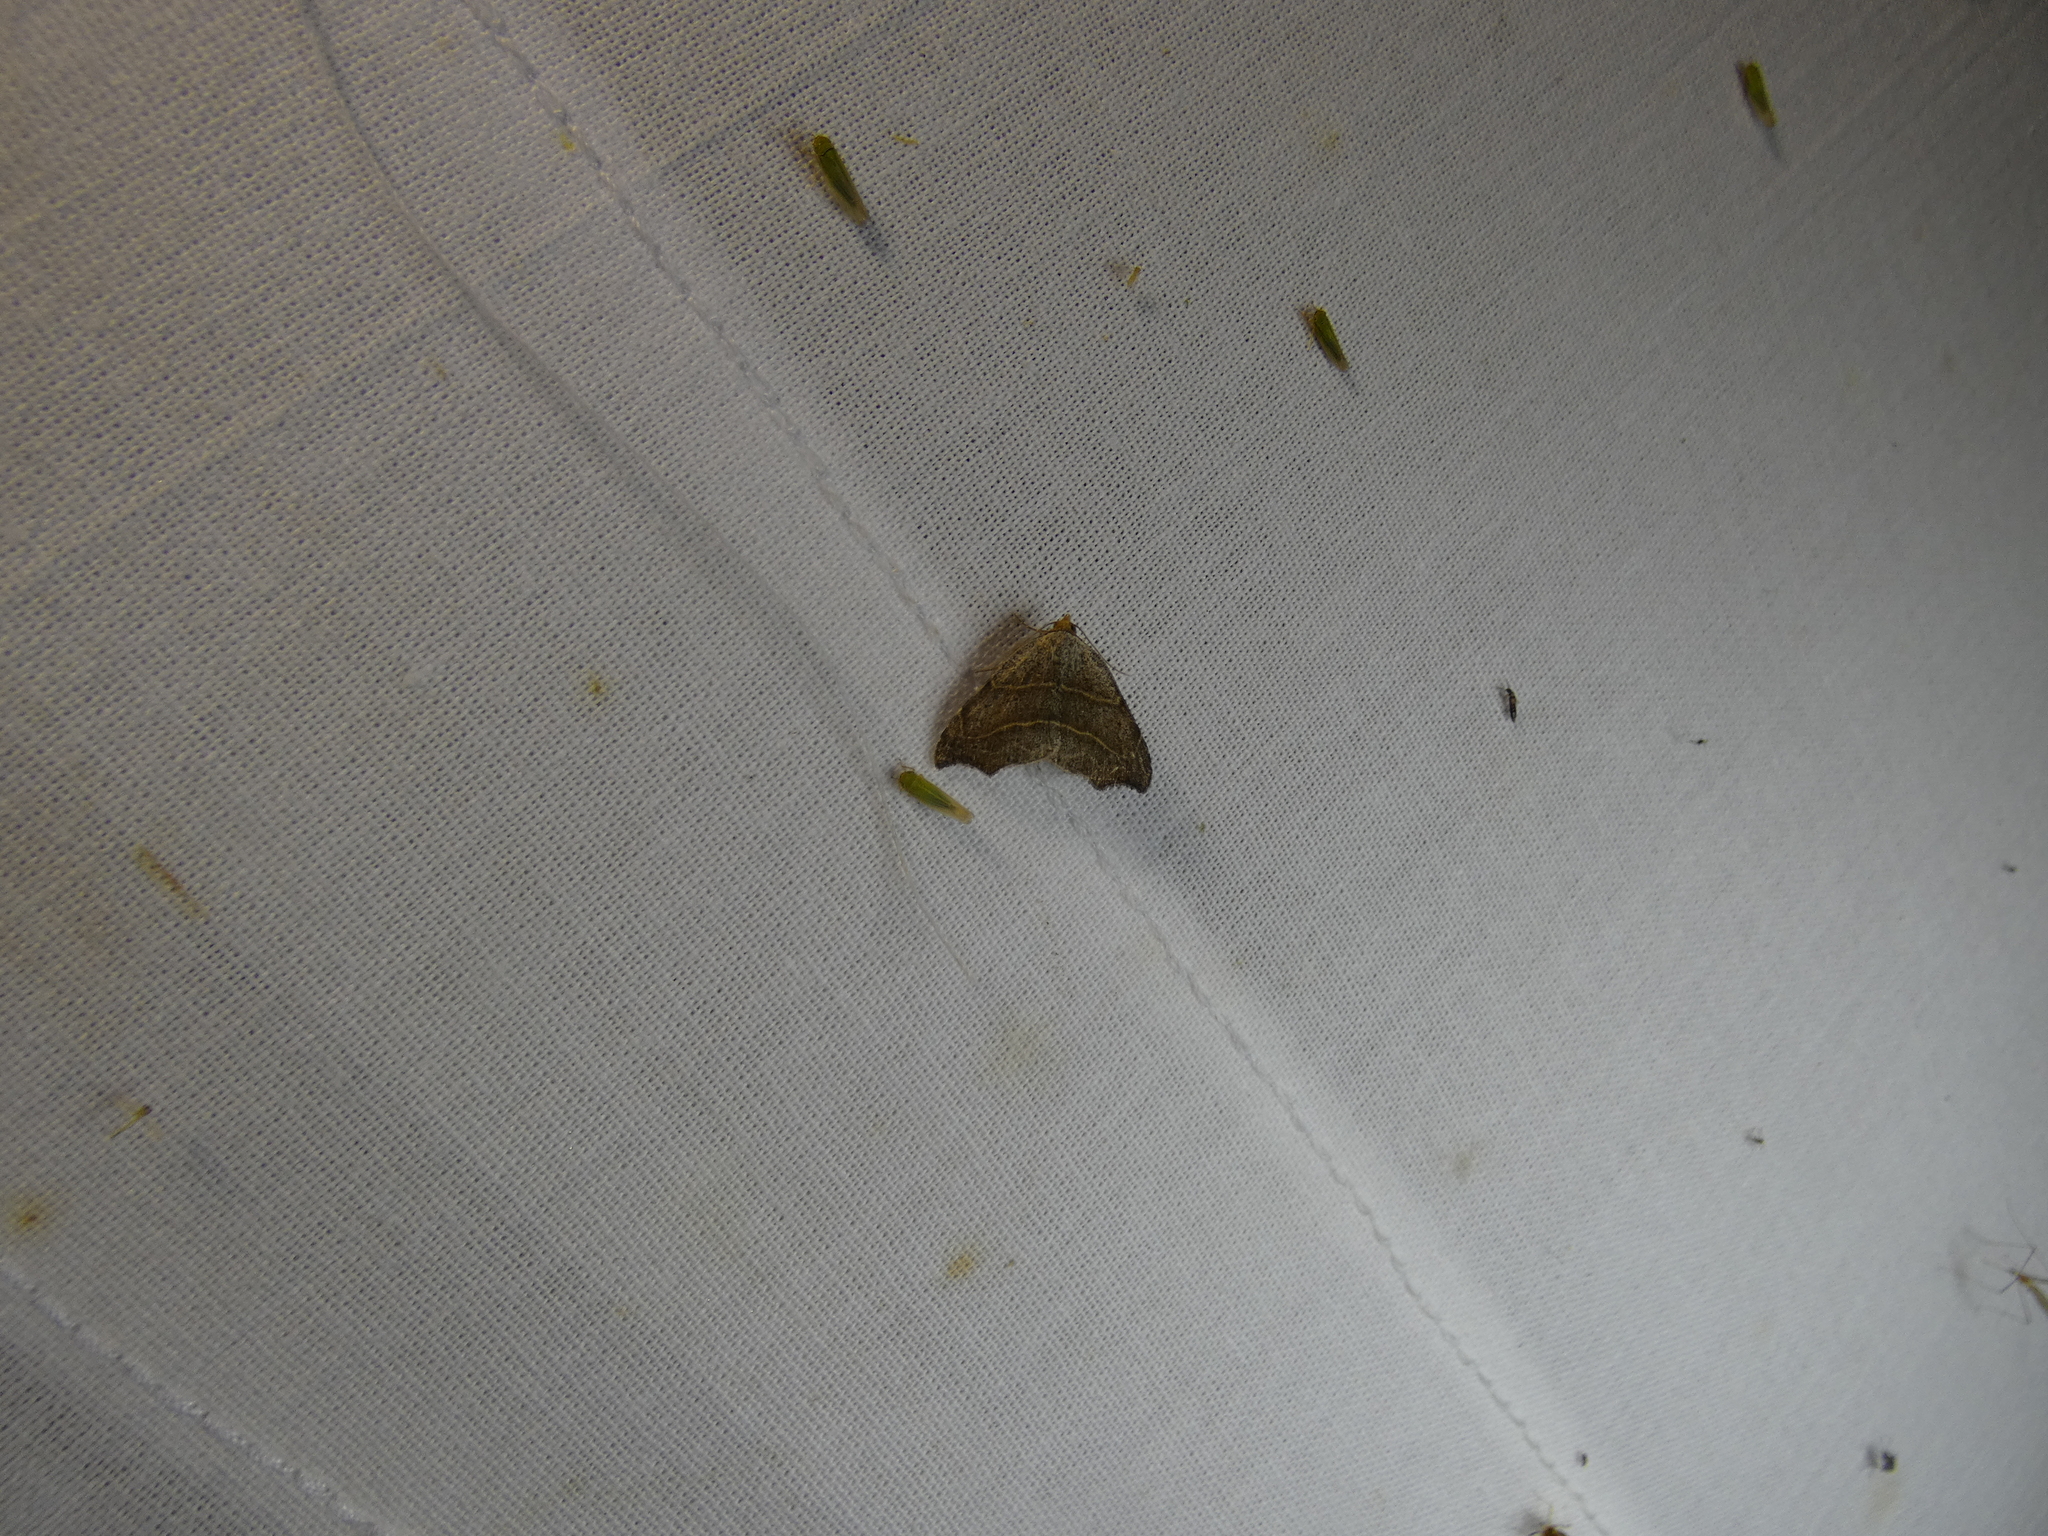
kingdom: Animalia
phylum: Arthropoda
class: Insecta
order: Lepidoptera
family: Erebidae
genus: Laspeyria
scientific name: Laspeyria flexula
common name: Beautiful hook-tip
